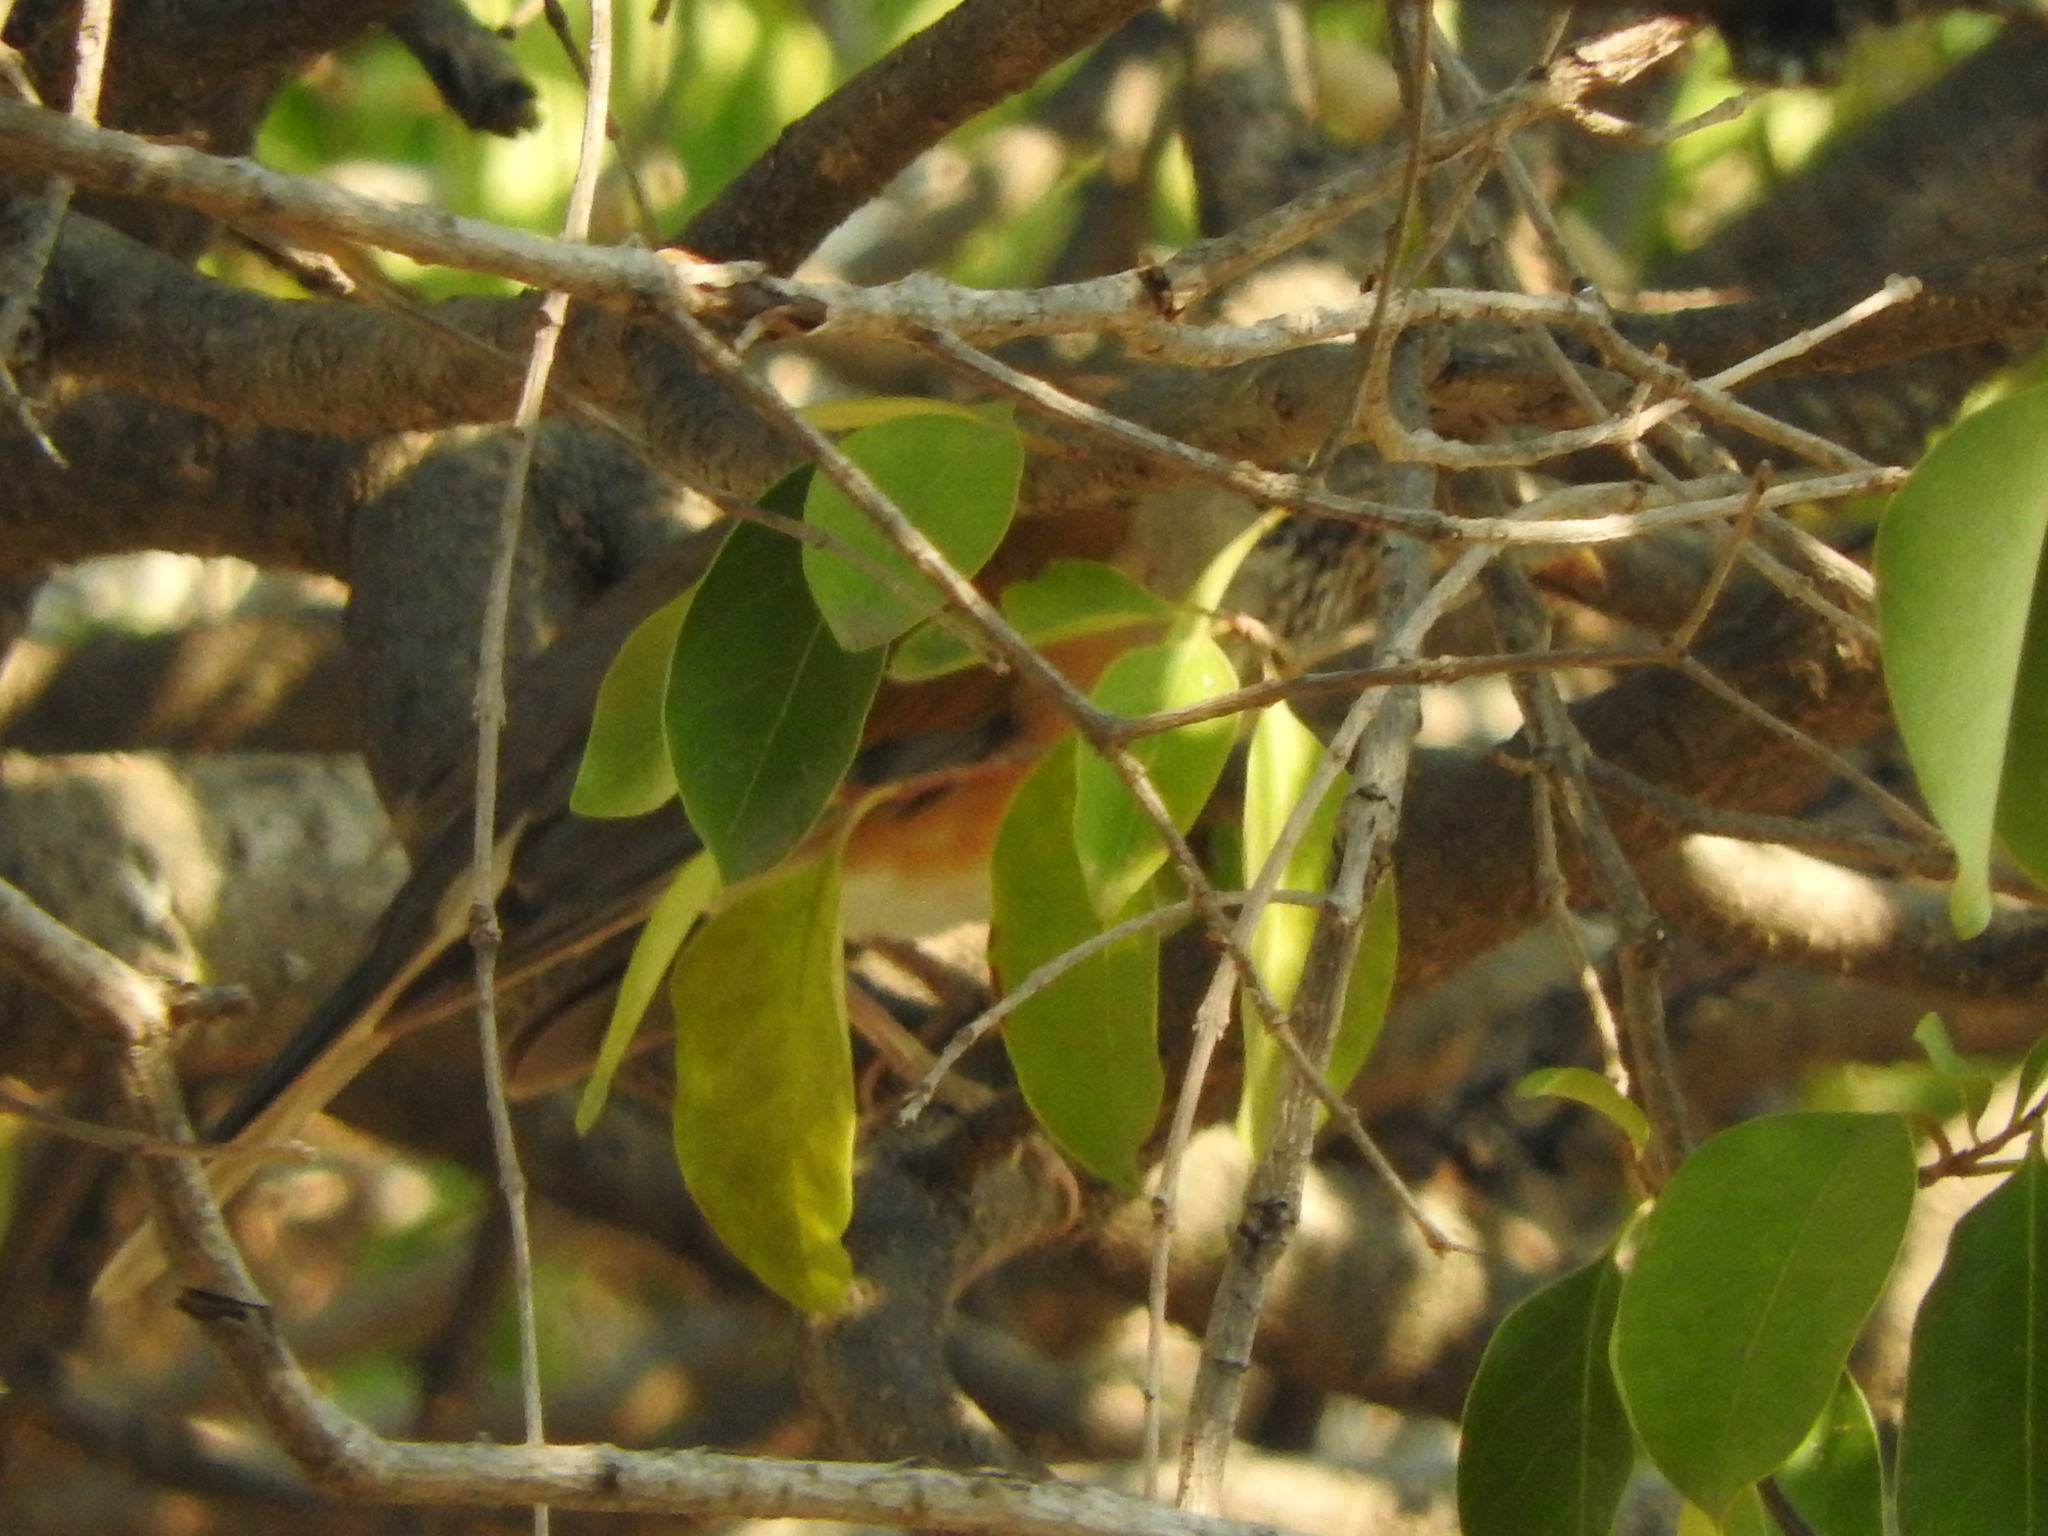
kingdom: Animalia
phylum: Chordata
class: Aves
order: Passeriformes
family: Turdidae
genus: Turdus
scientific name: Turdus rufopalliatus
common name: Rufous-backed robin
